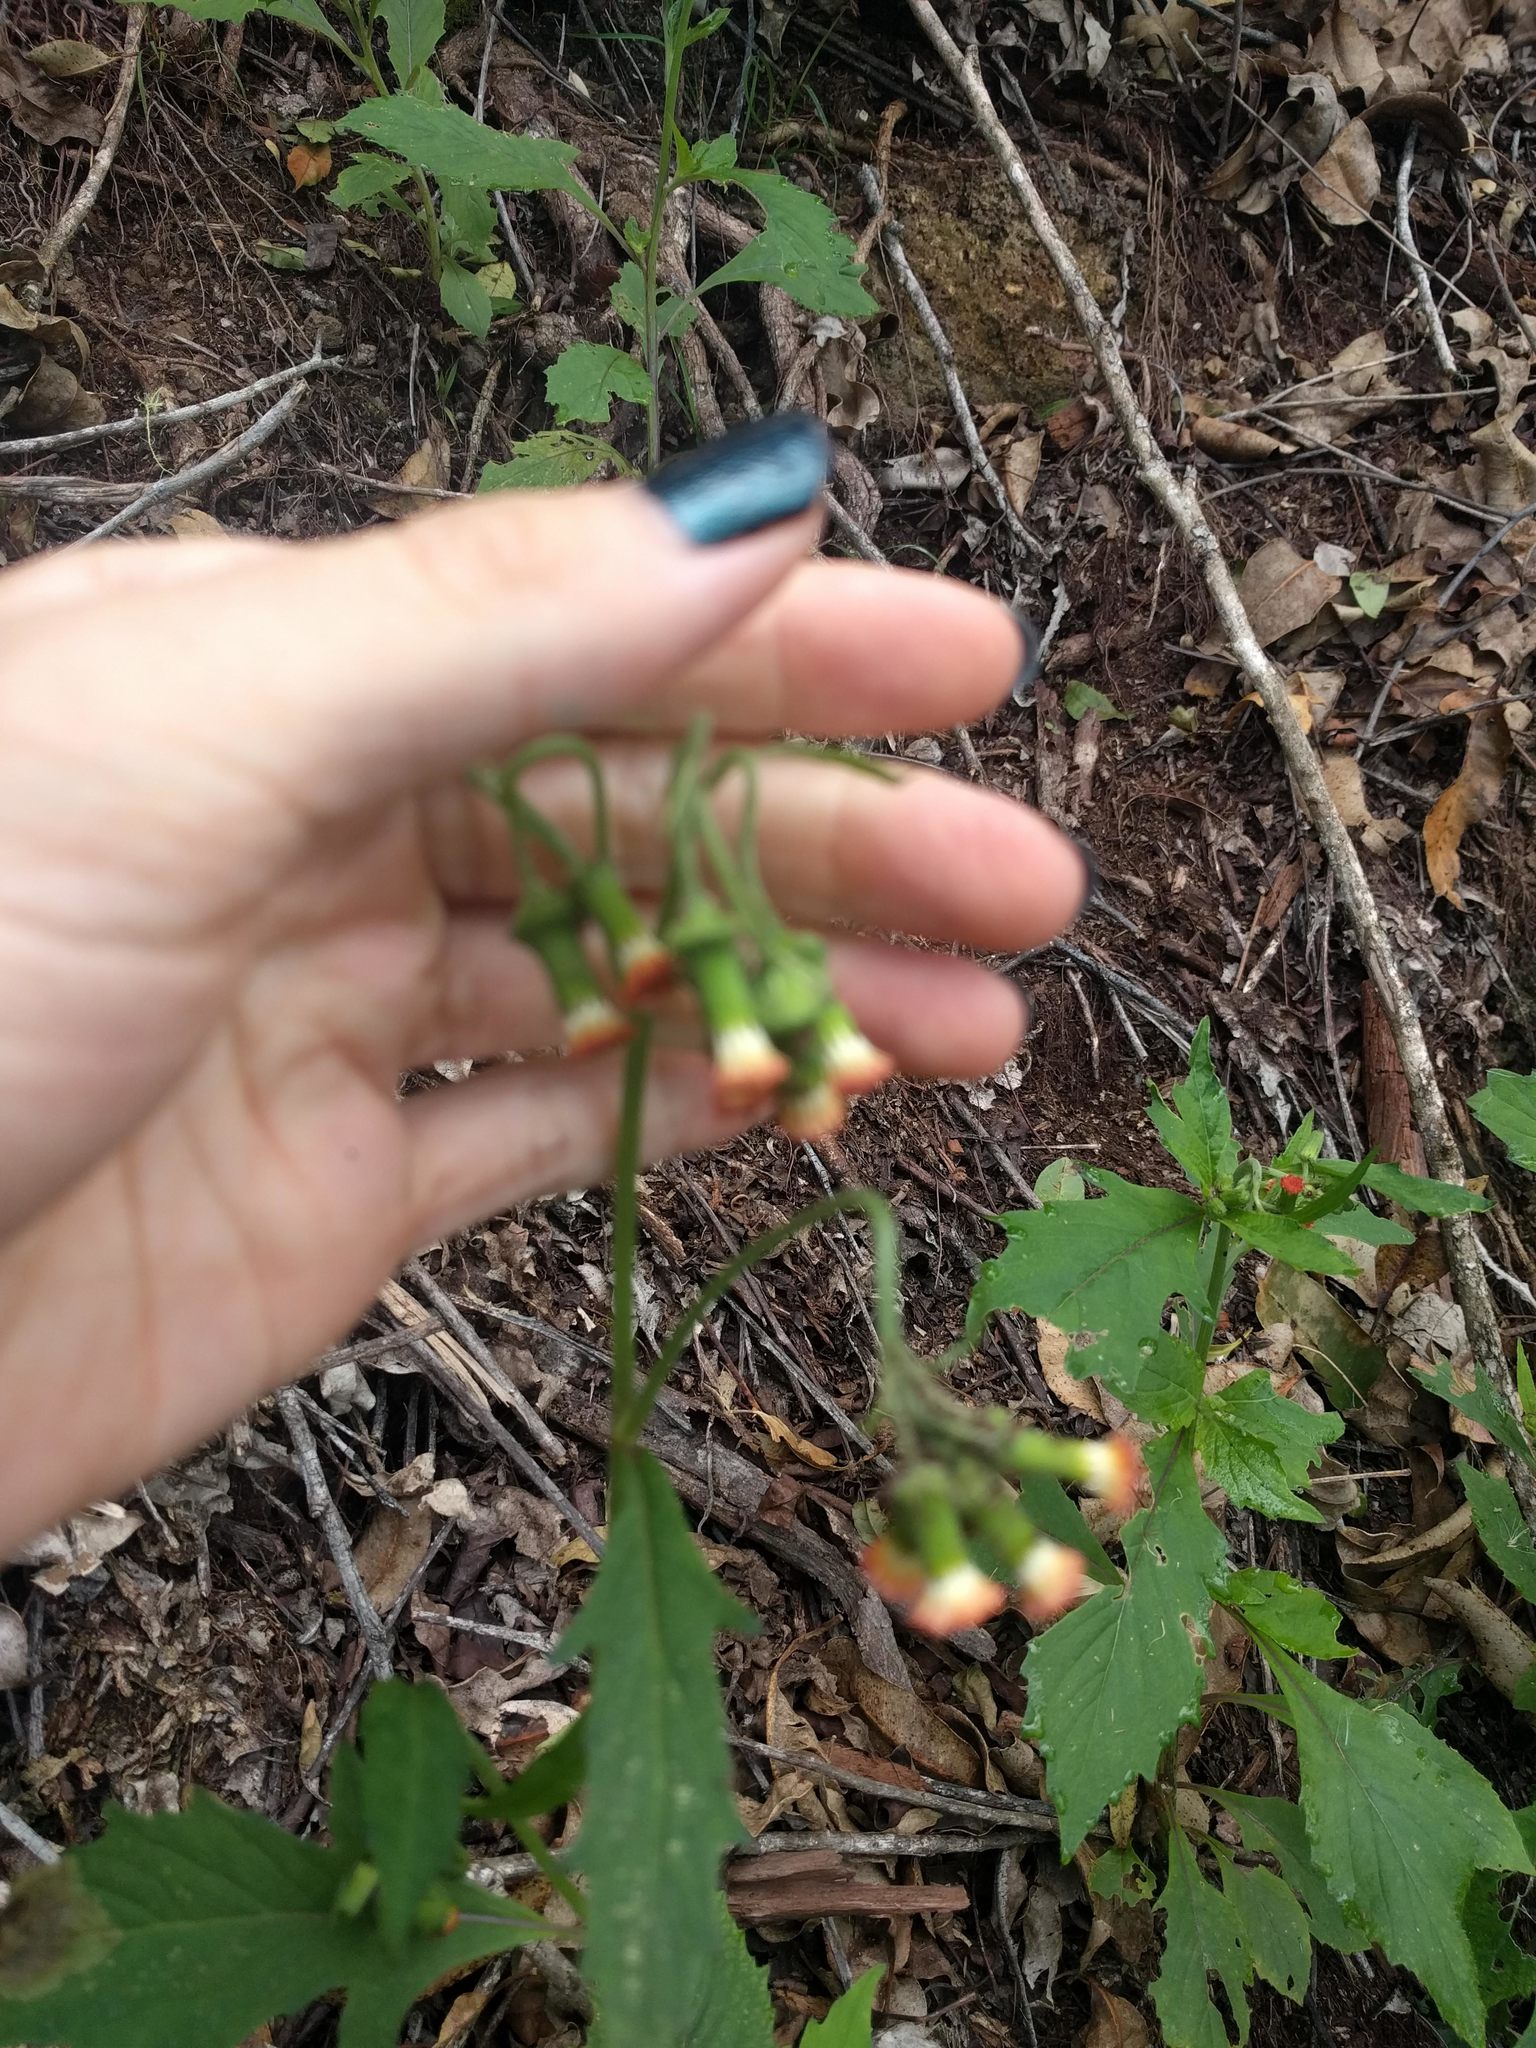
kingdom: Plantae
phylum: Tracheophyta
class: Magnoliopsida
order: Asterales
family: Asteraceae
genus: Crassocephalum
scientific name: Crassocephalum crepidioides
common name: Redflower ragleaf
